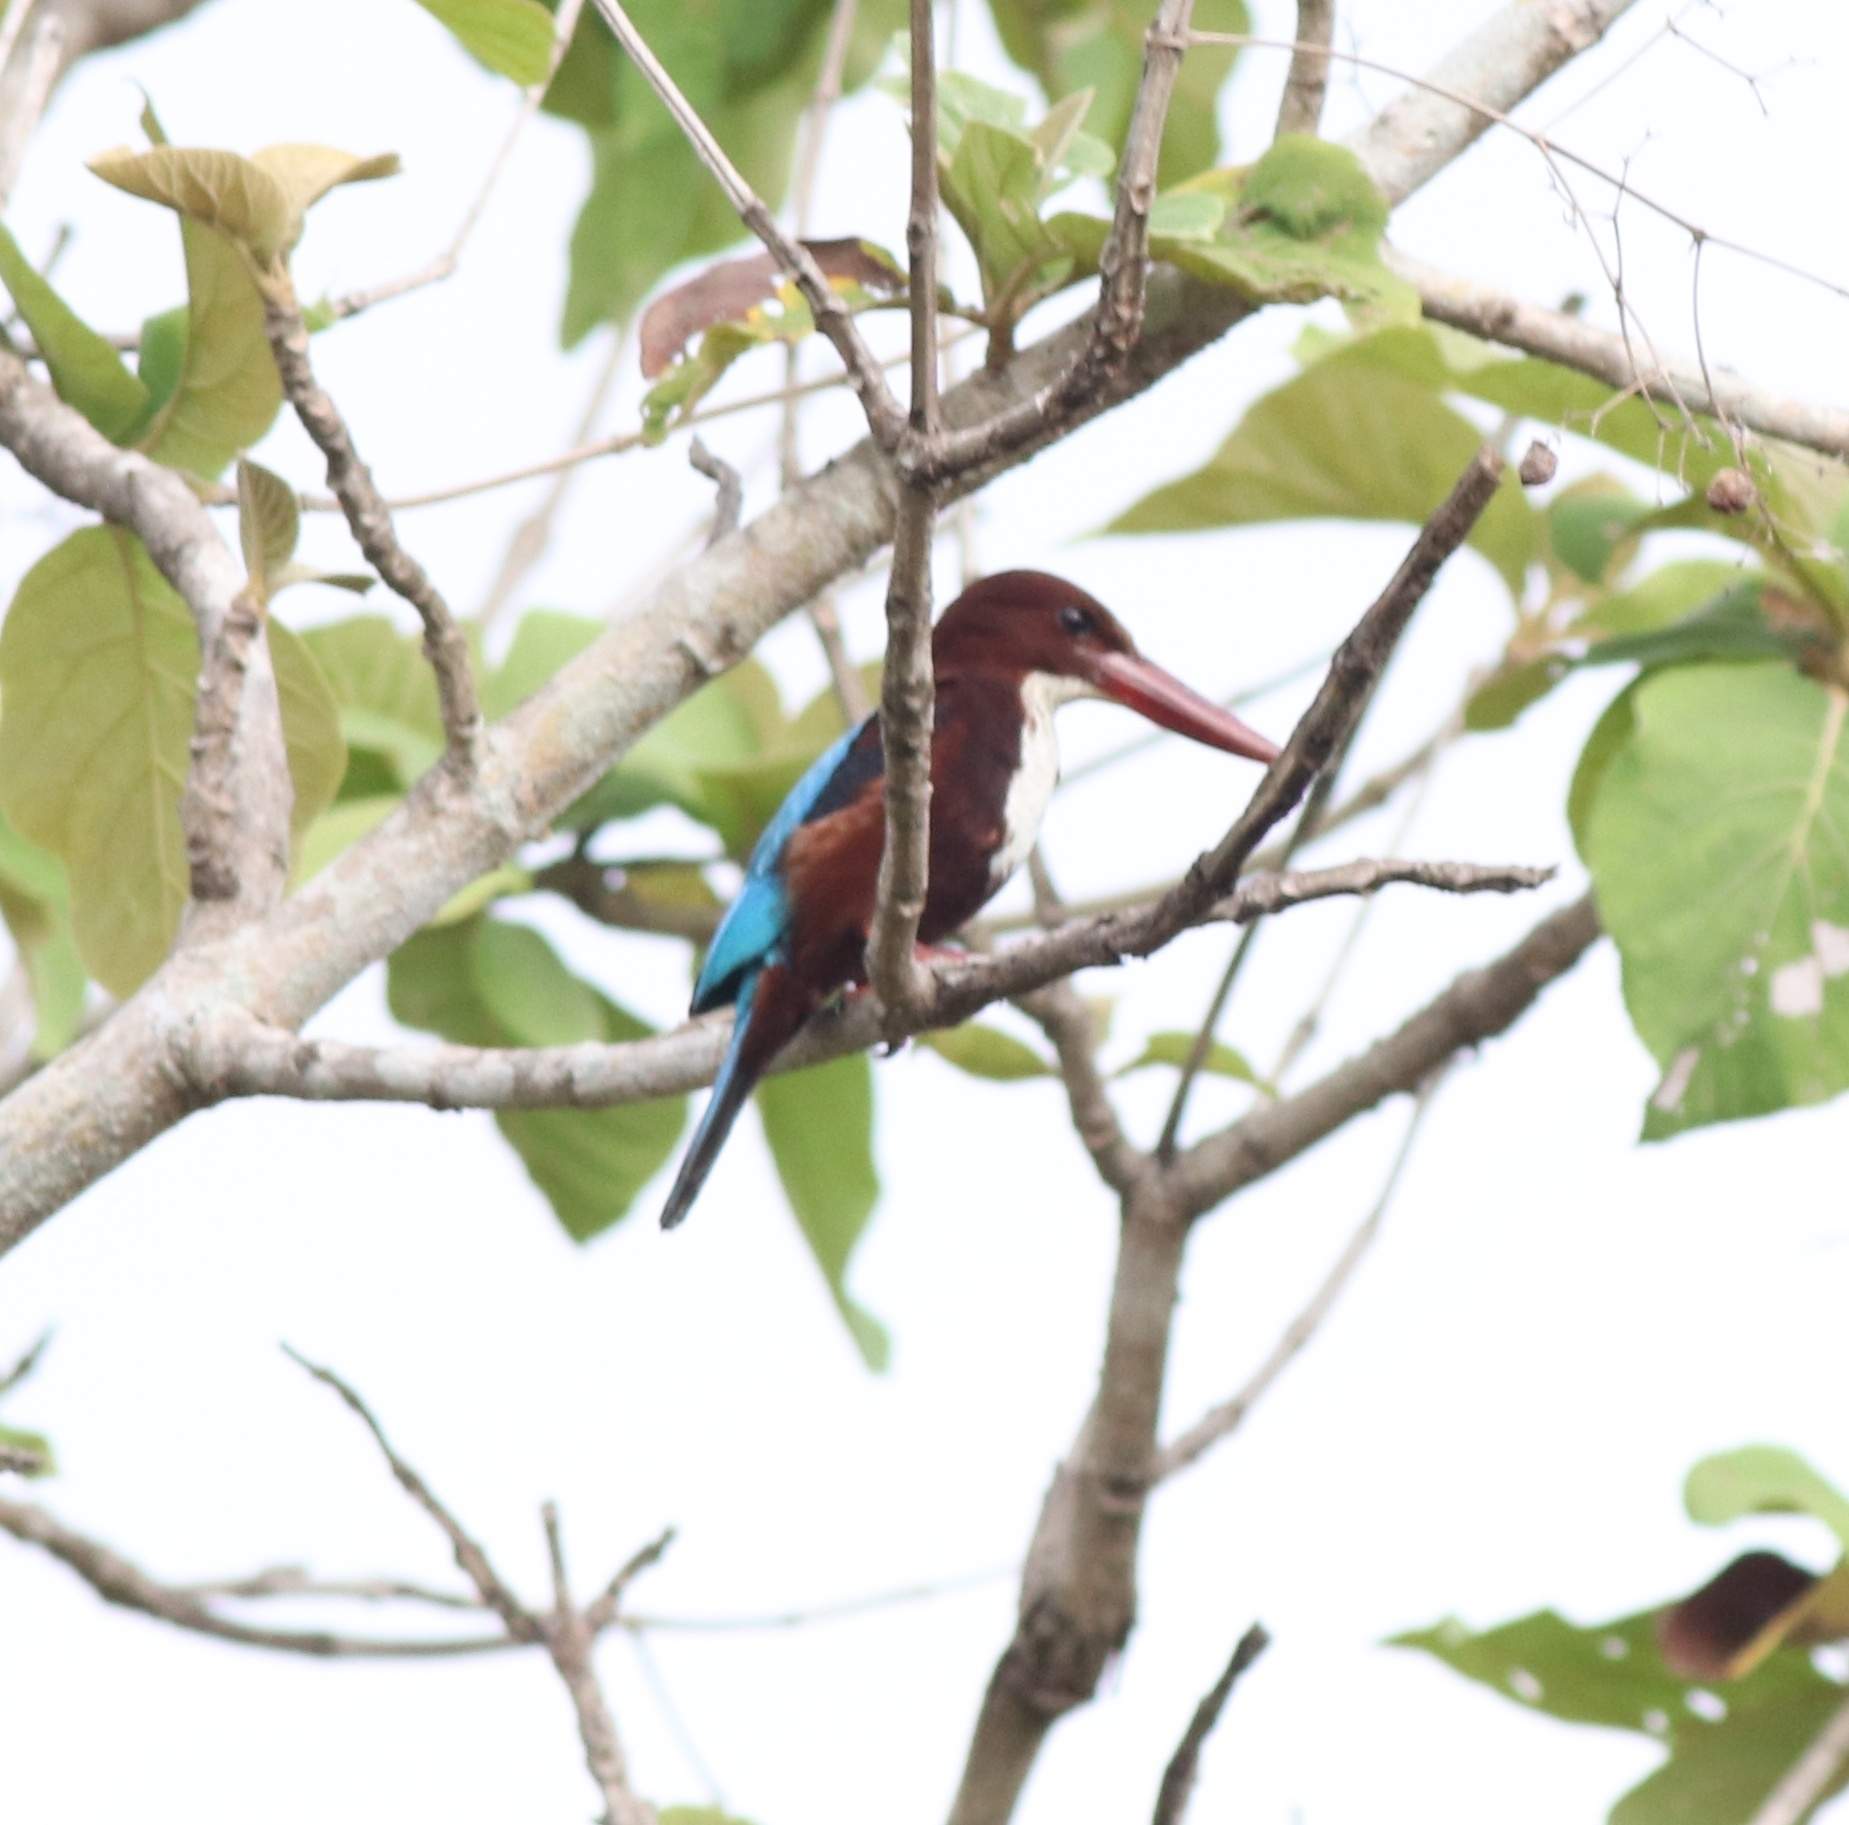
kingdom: Animalia
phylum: Chordata
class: Aves
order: Coraciiformes
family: Alcedinidae
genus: Halcyon
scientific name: Halcyon smyrnensis
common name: White-throated kingfisher
